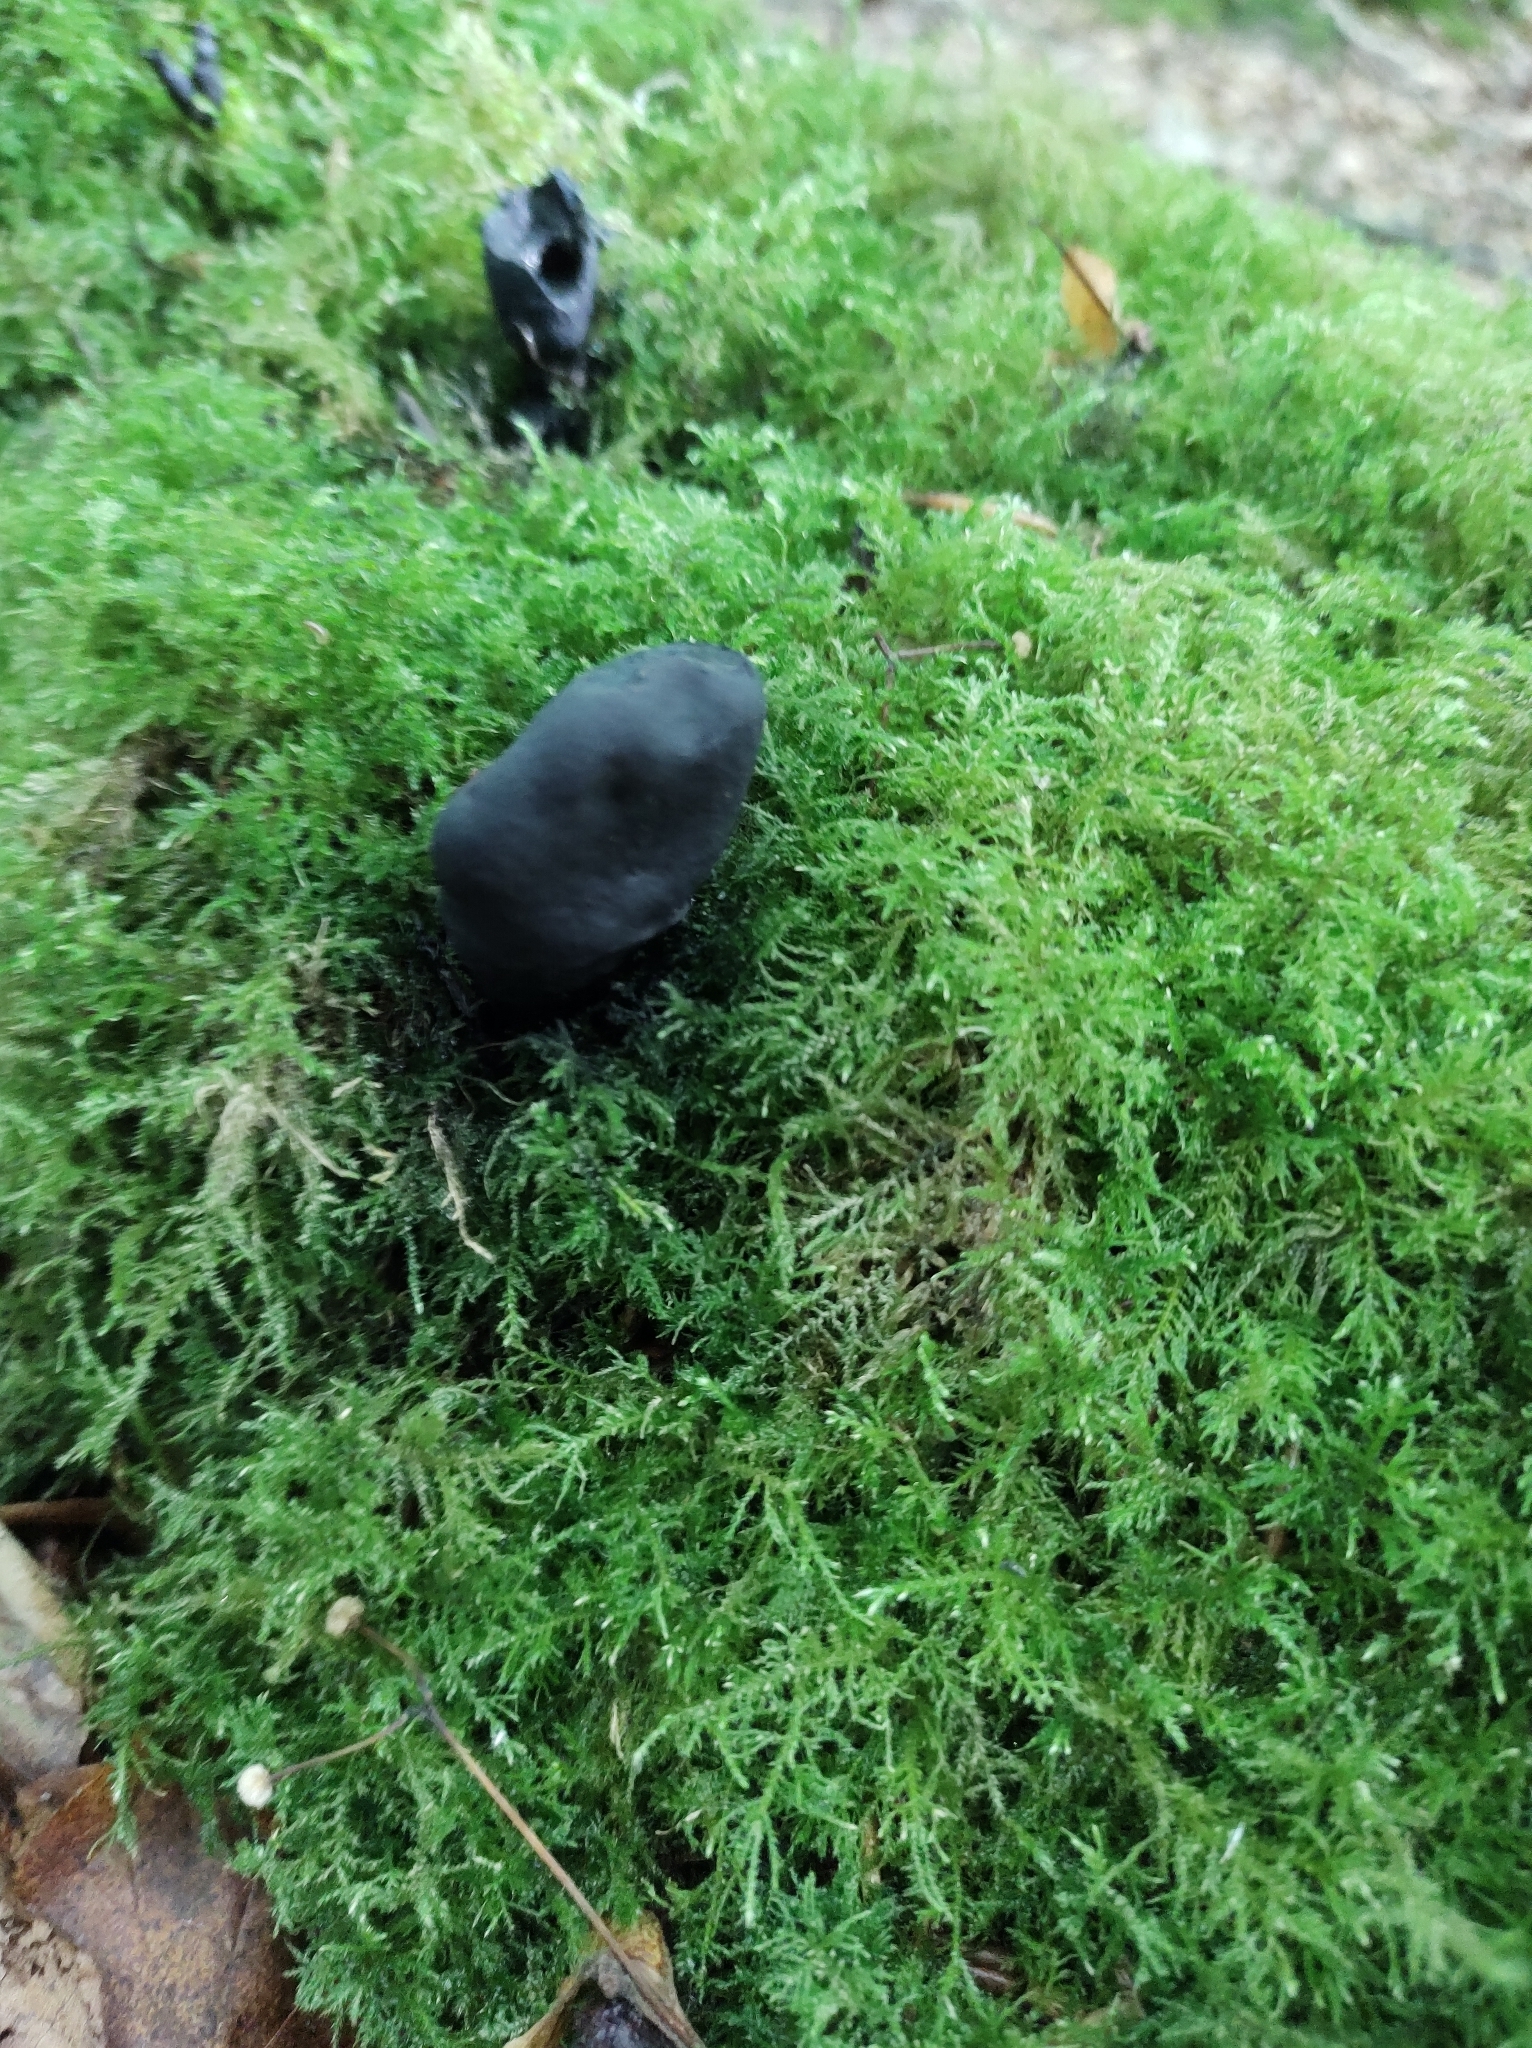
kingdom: Fungi
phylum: Ascomycota
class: Sordariomycetes
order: Xylariales
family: Xylariaceae
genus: Xylaria
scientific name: Xylaria polymorpha
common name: Dead man's fingers
